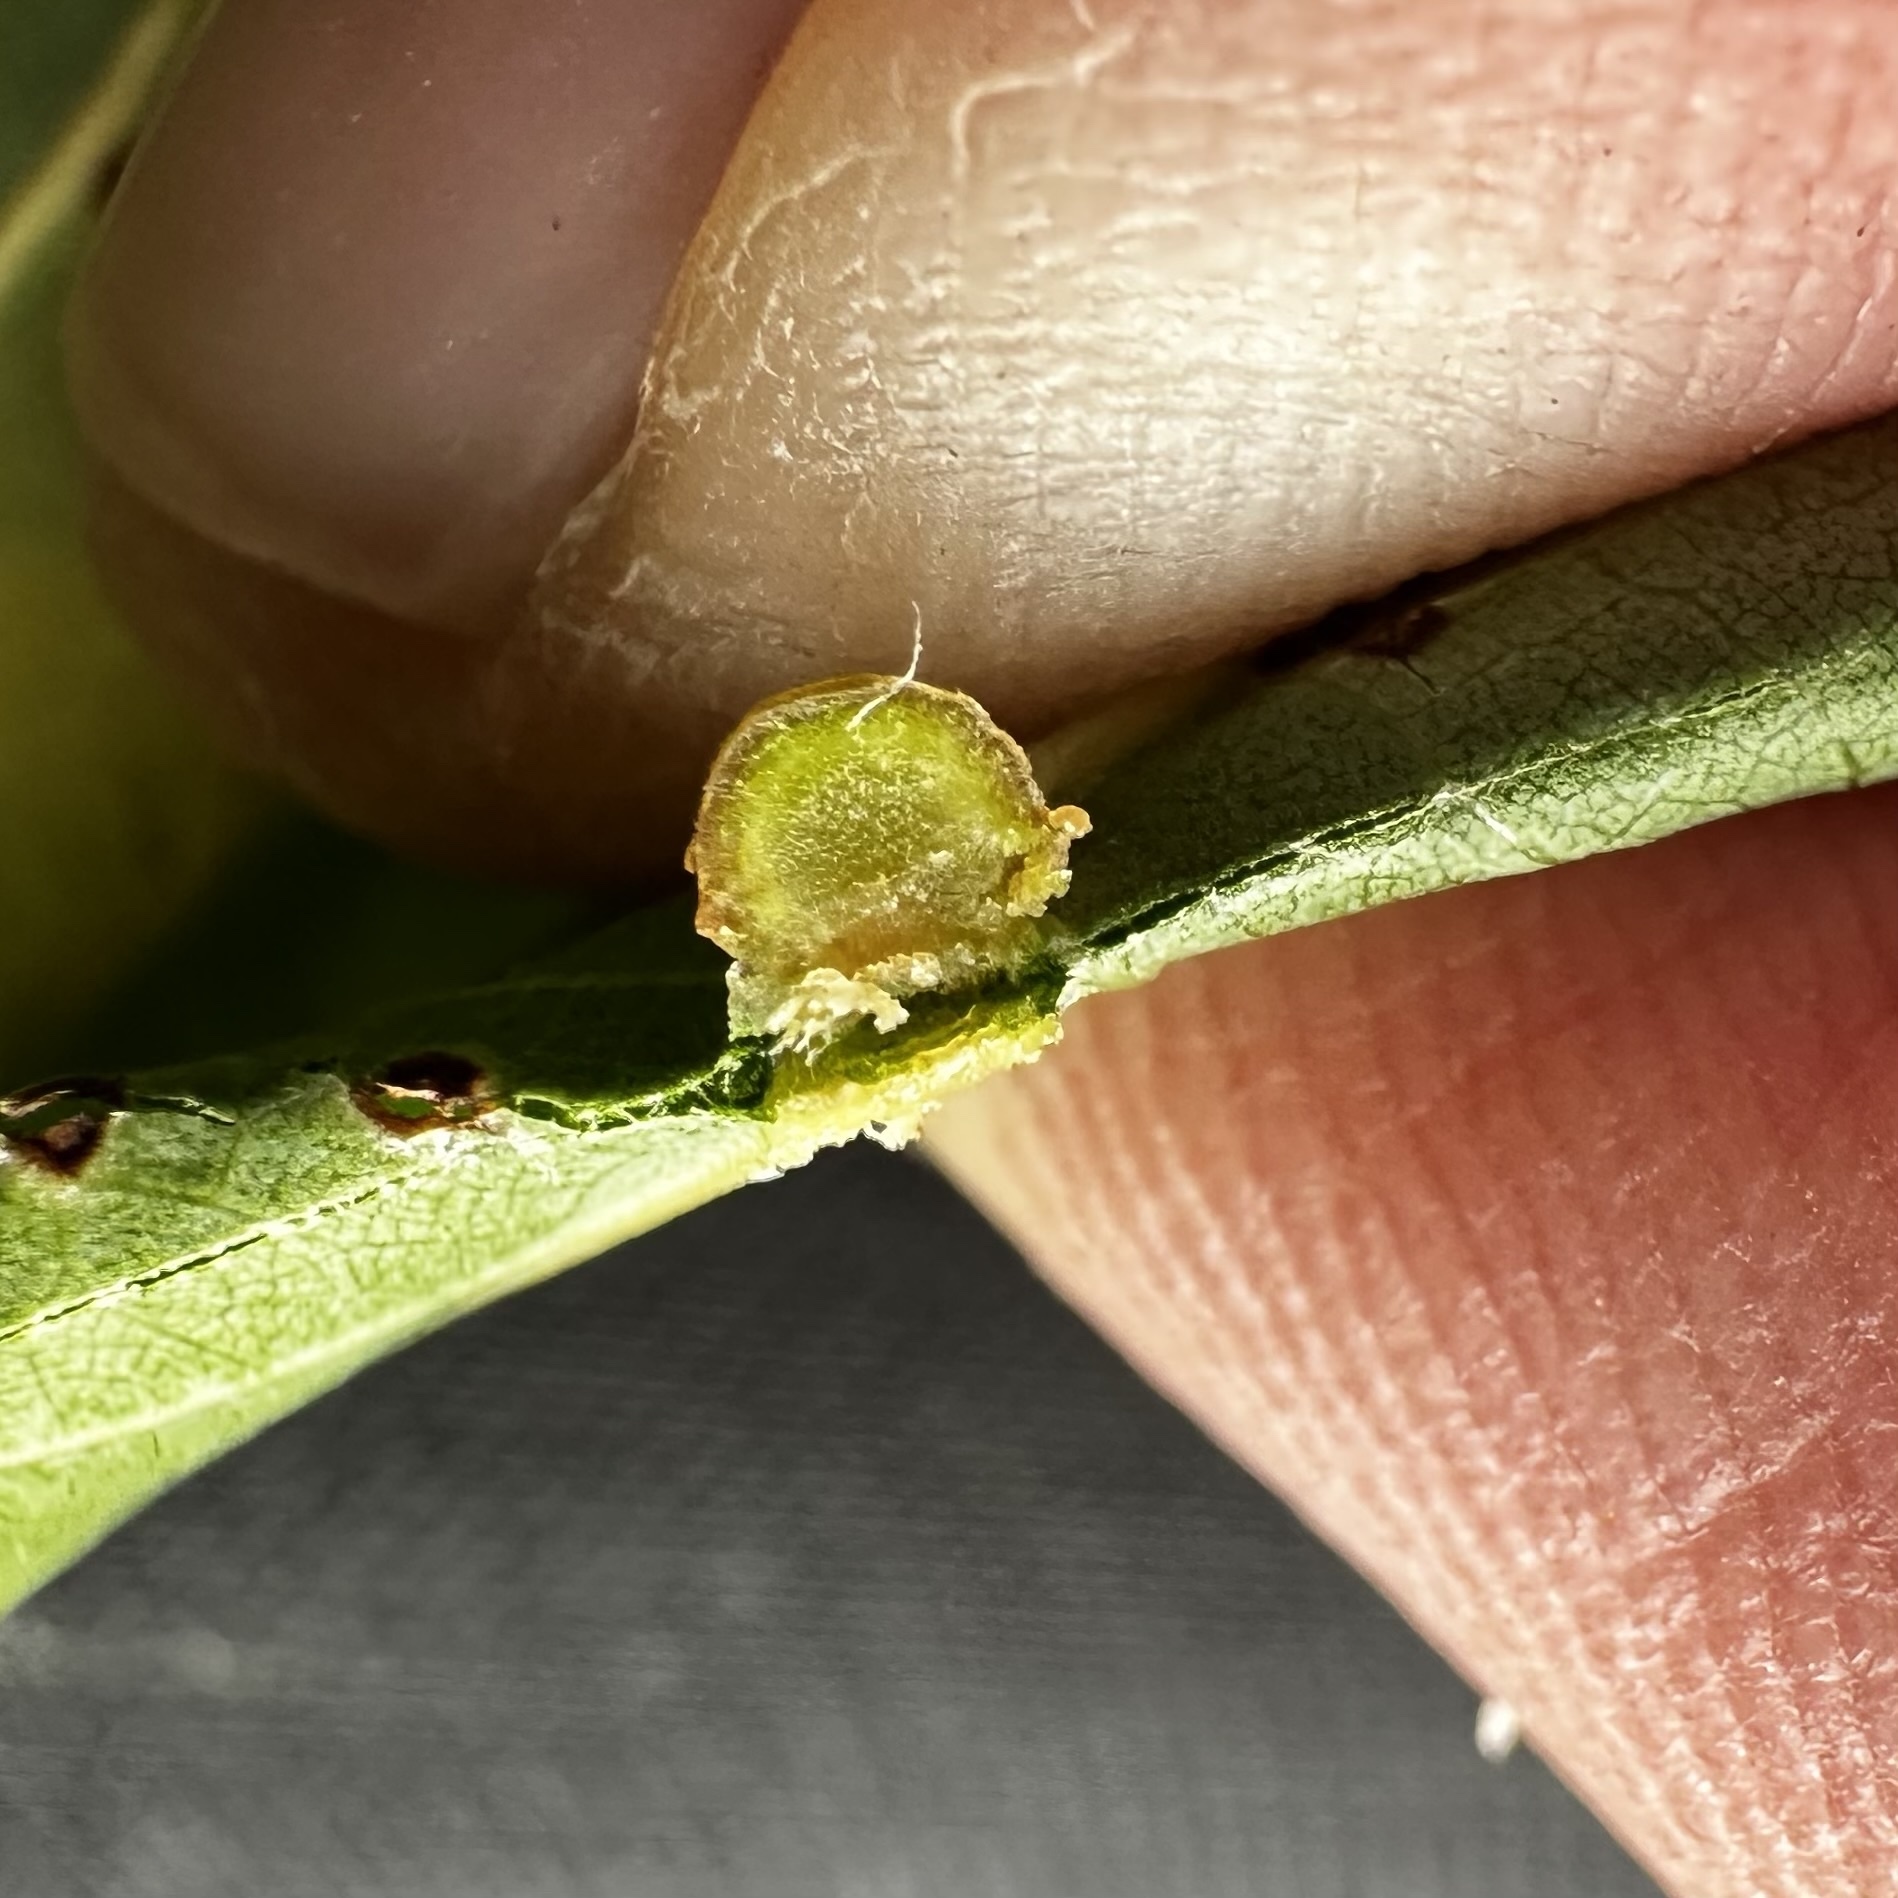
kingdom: Animalia
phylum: Arthropoda
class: Insecta
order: Diptera
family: Cecidomyiidae
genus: Polystepha
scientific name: Polystepha globosa
